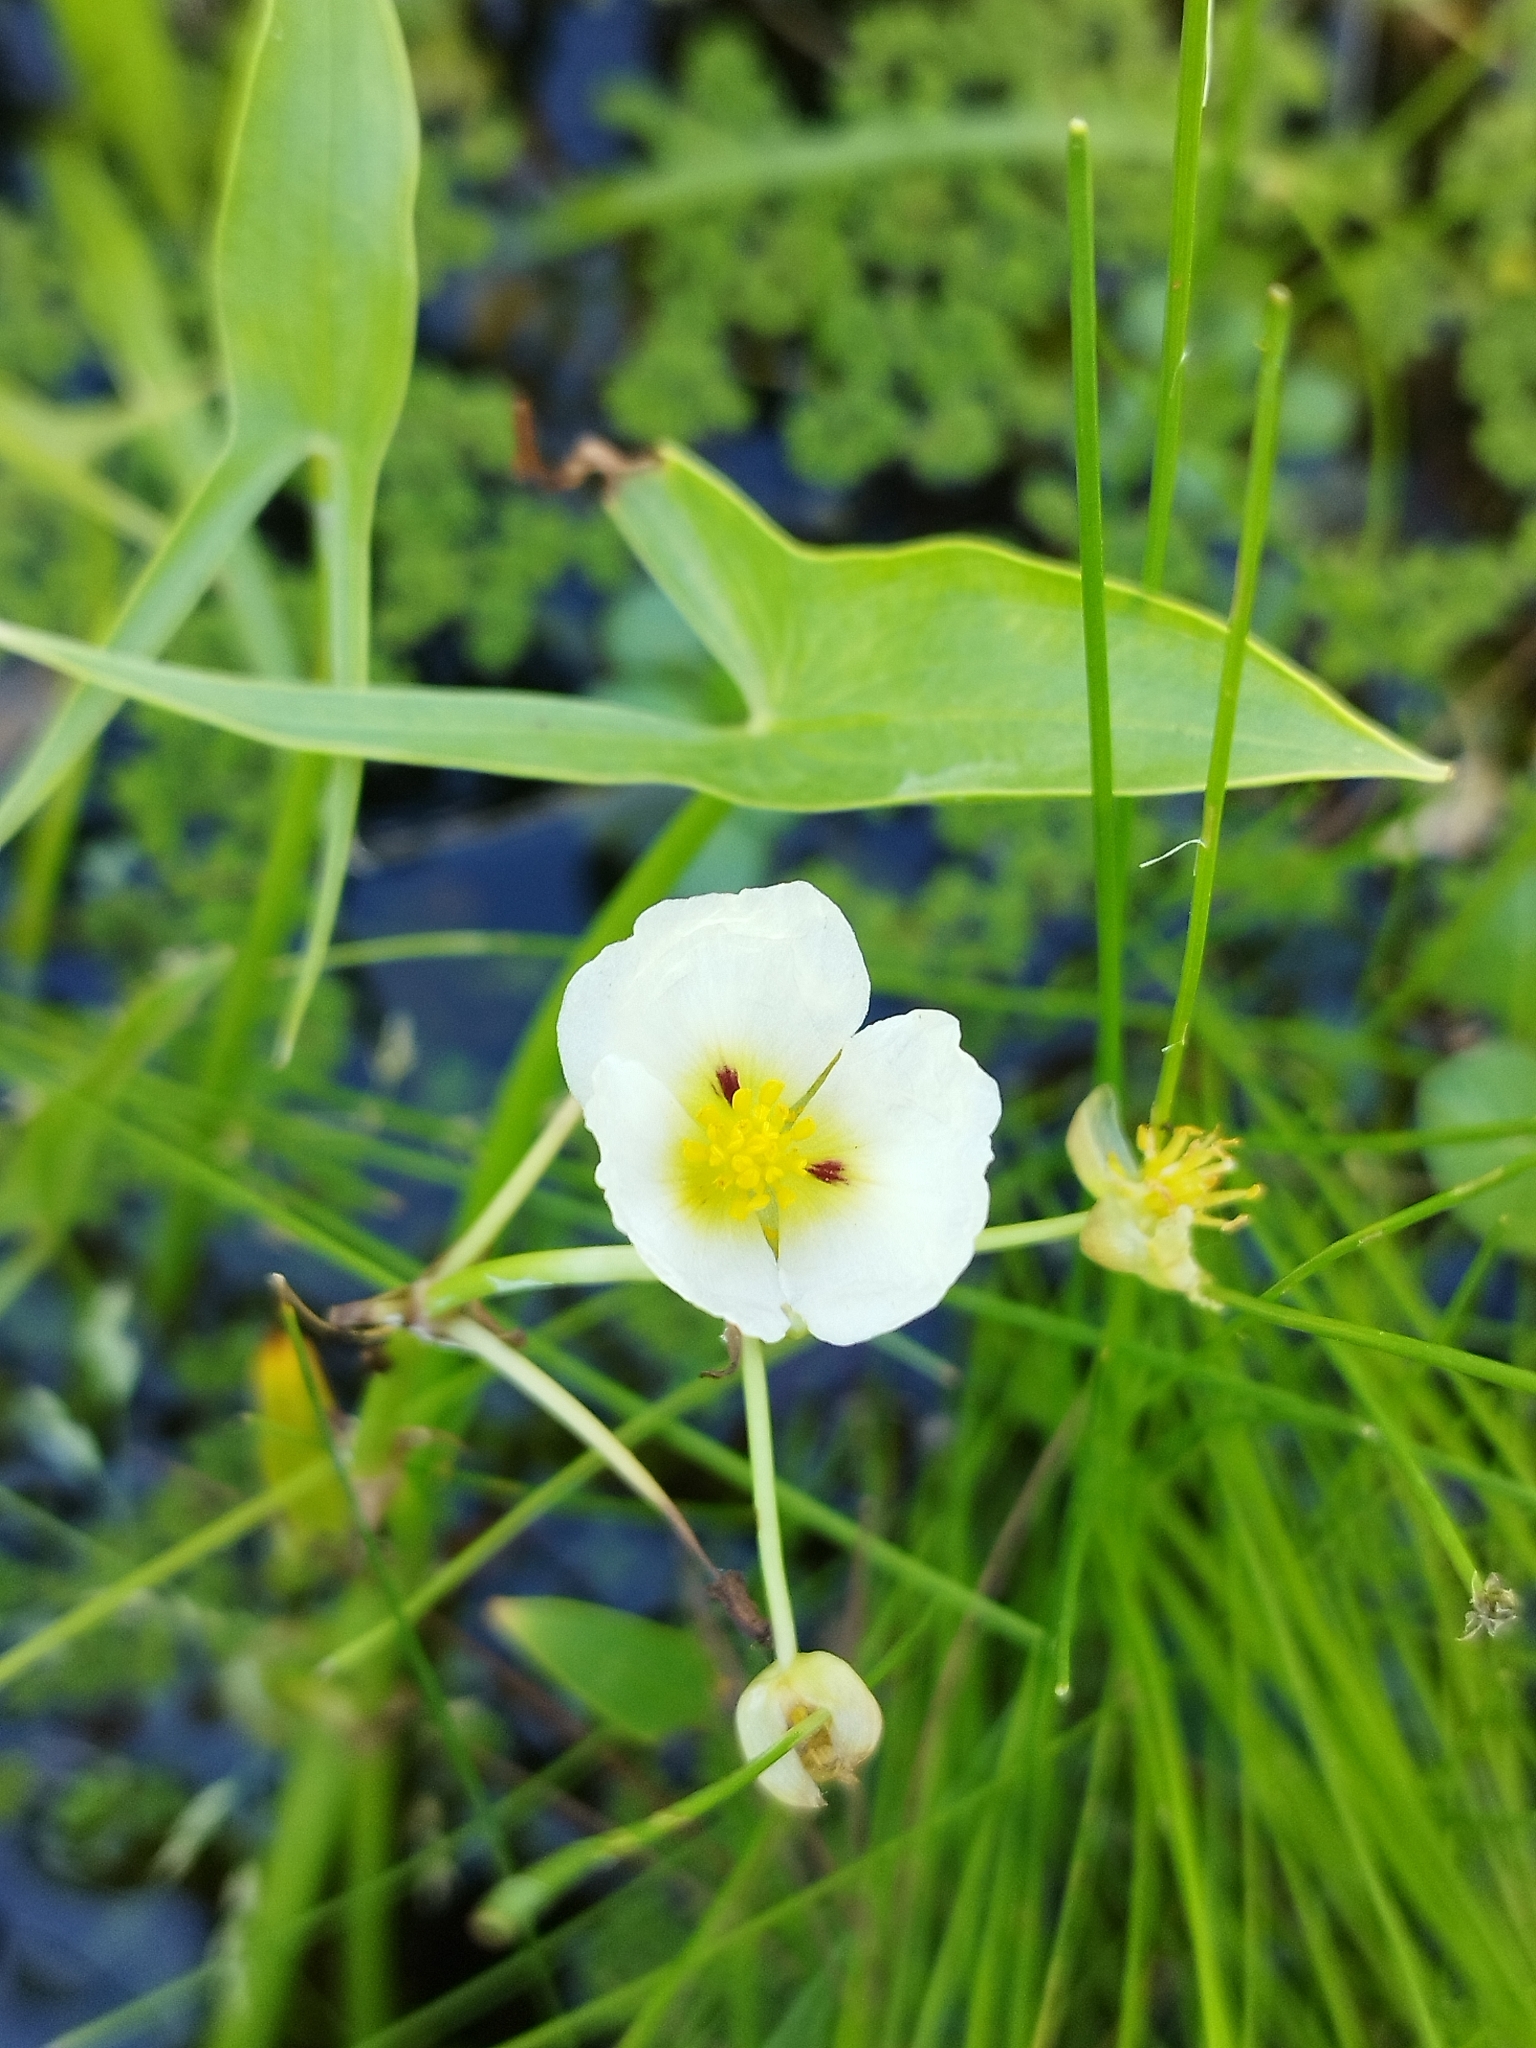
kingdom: Plantae
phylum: Tracheophyta
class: Liliopsida
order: Alismatales
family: Alismataceae
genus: Sagittaria
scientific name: Sagittaria montevidensis
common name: Giant arrowhead
